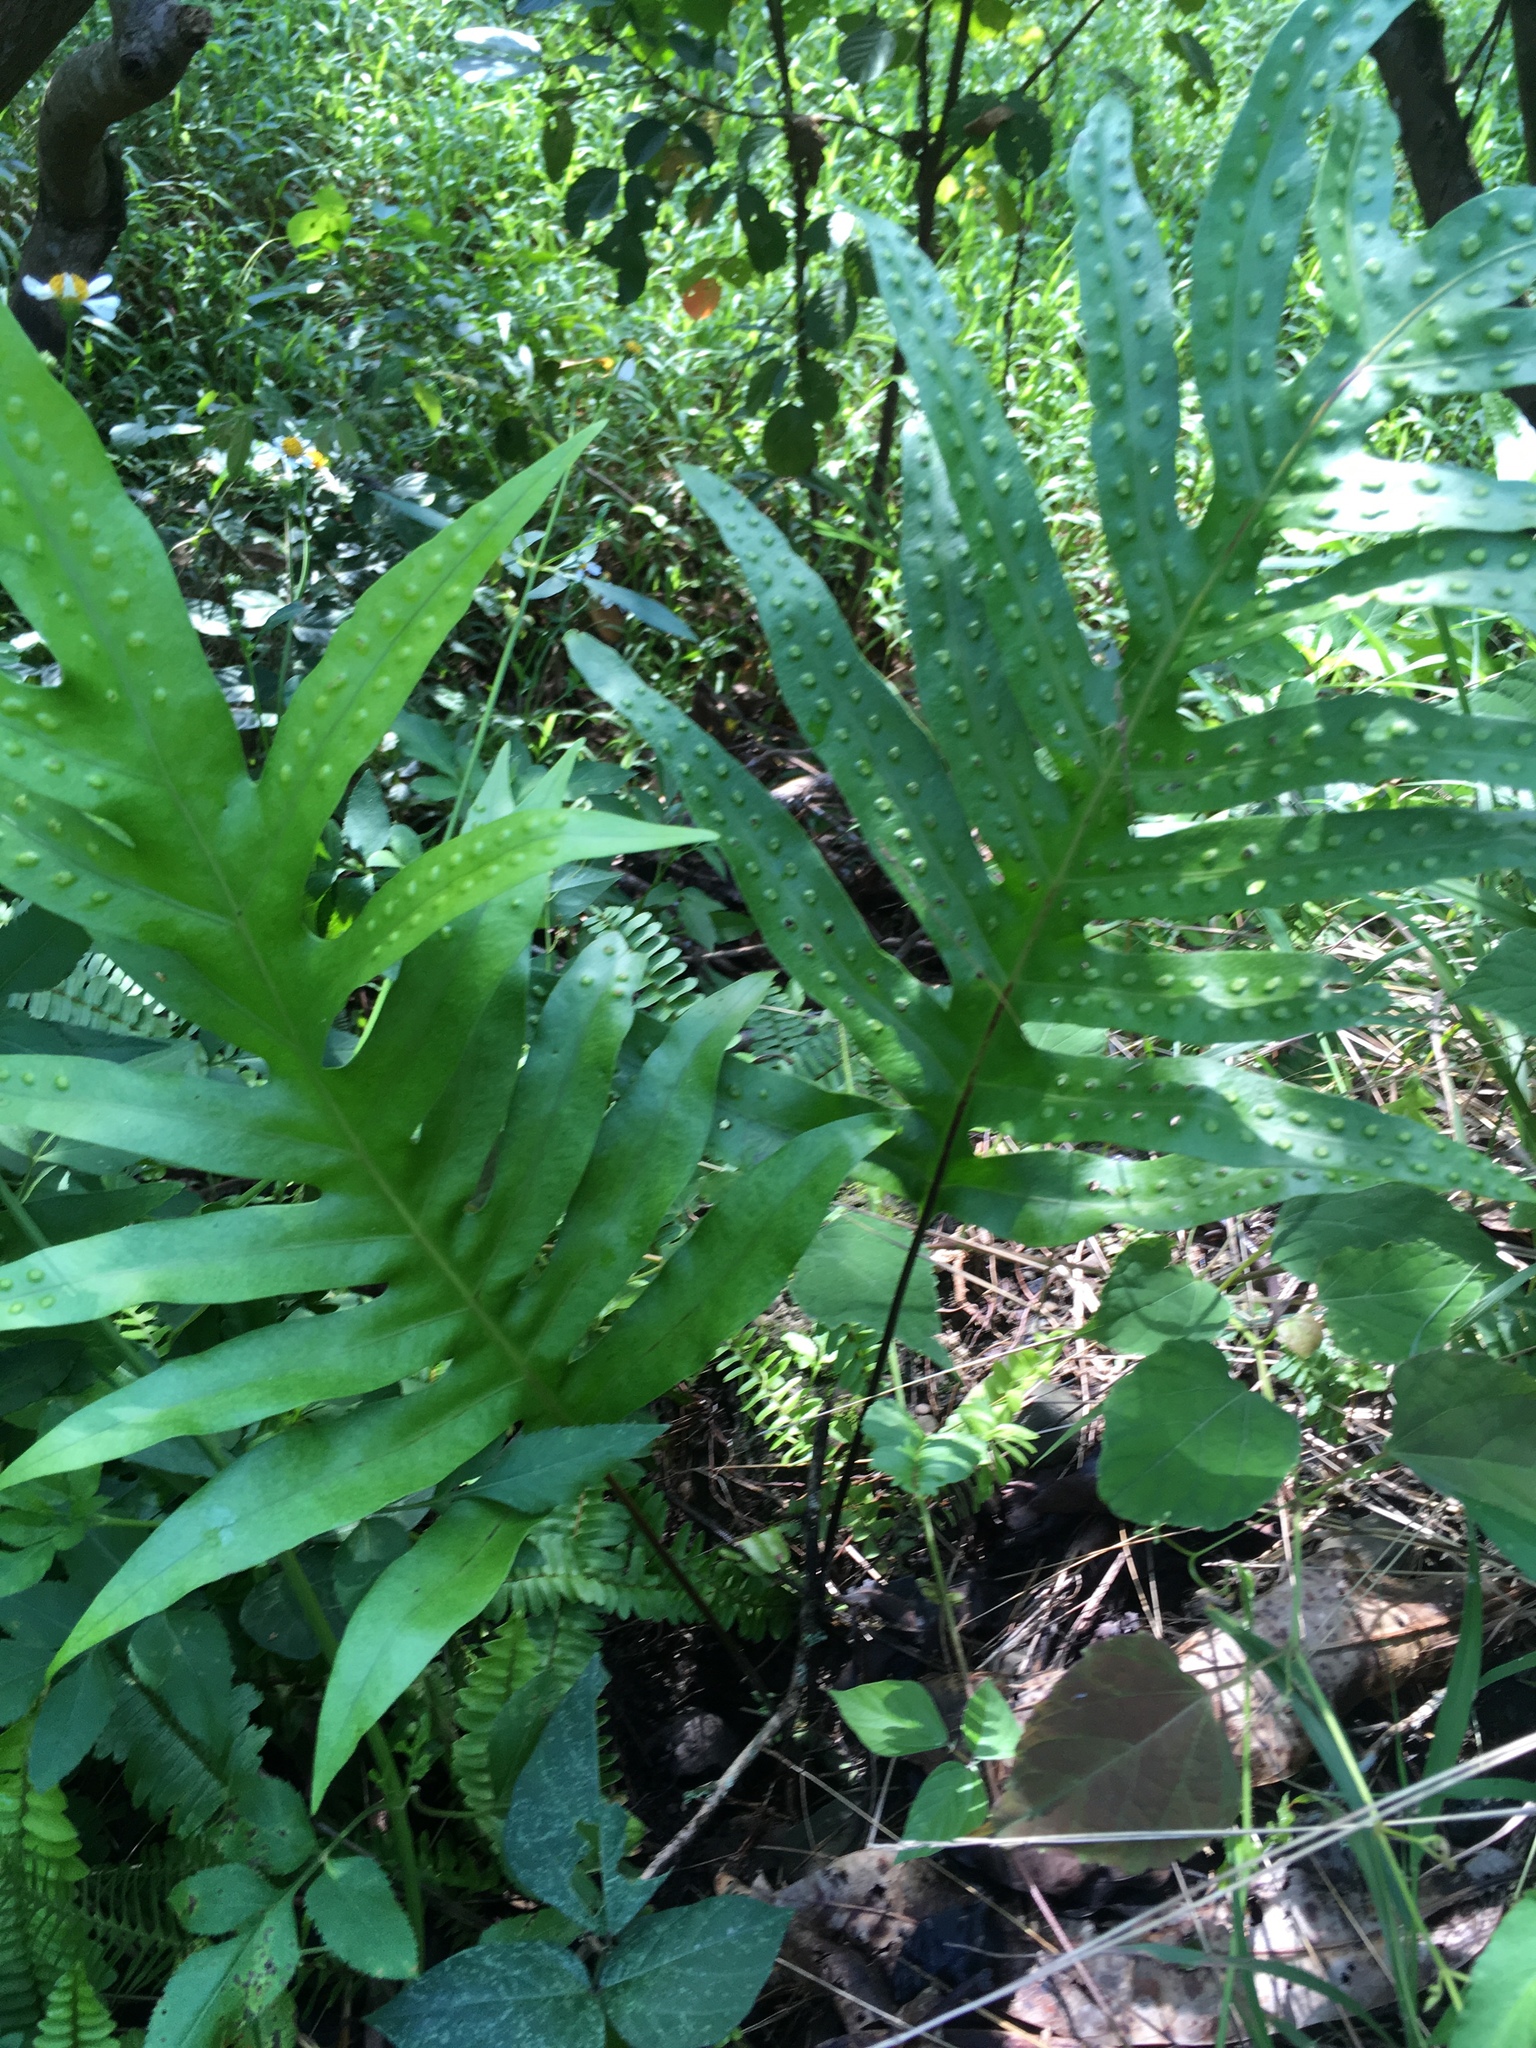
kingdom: Plantae
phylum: Tracheophyta
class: Polypodiopsida
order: Polypodiales
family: Polypodiaceae
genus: Microsorum
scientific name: Microsorum scolopendria
